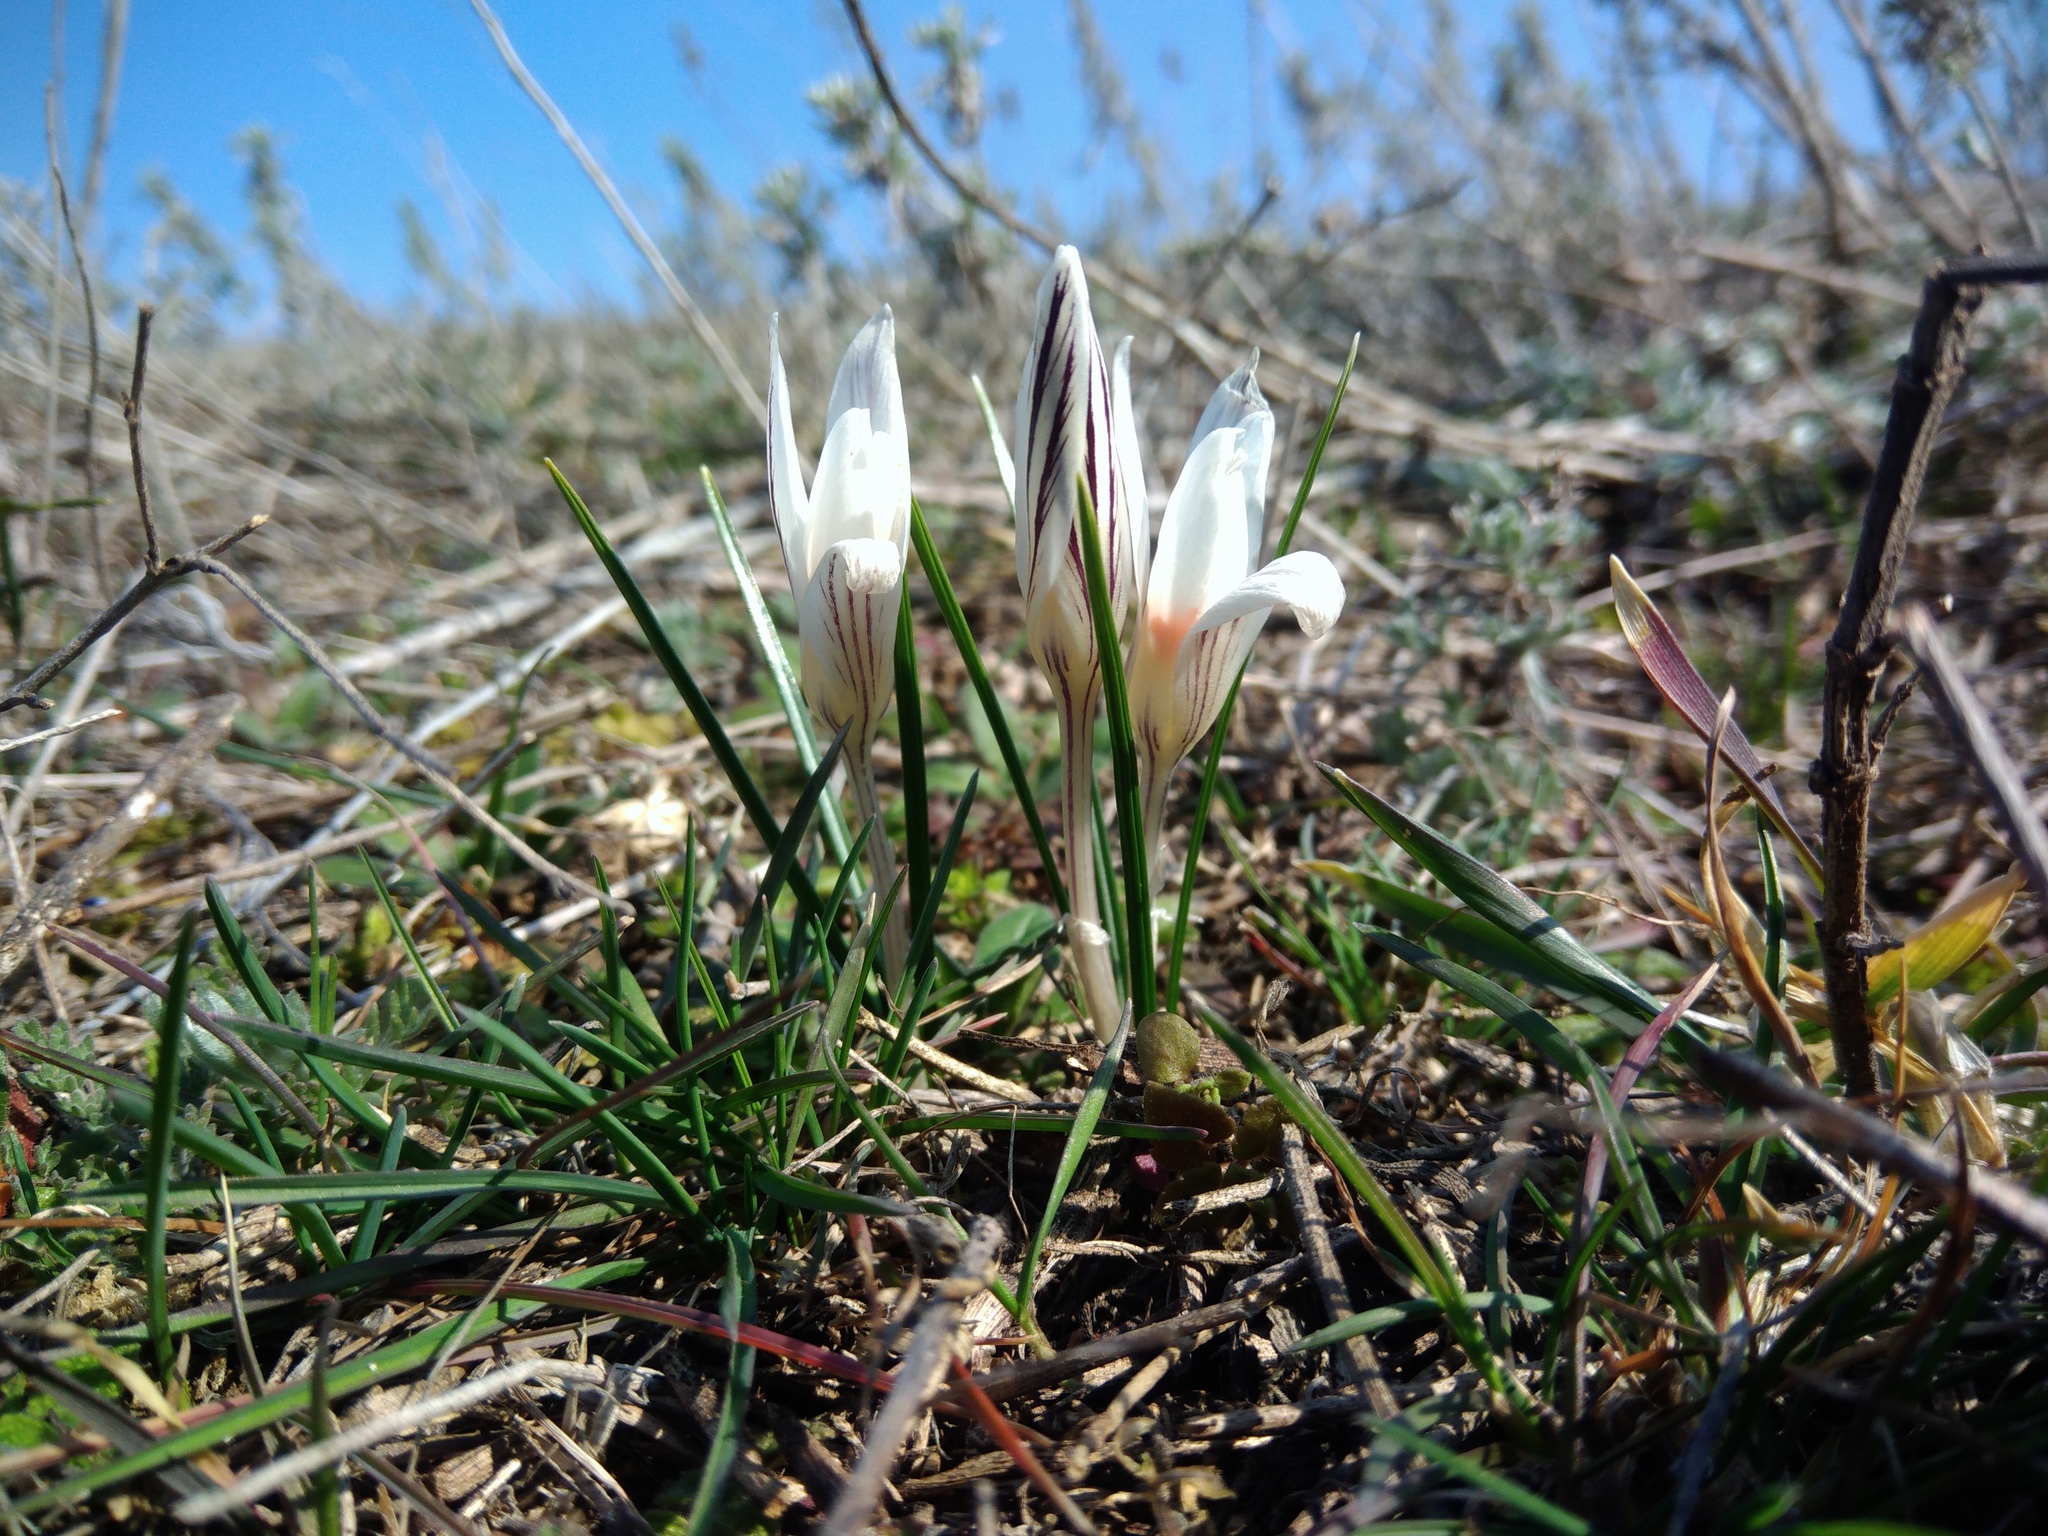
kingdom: Plantae
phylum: Tracheophyta
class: Liliopsida
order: Asparagales
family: Iridaceae
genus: Crocus
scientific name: Crocus reticulatus
